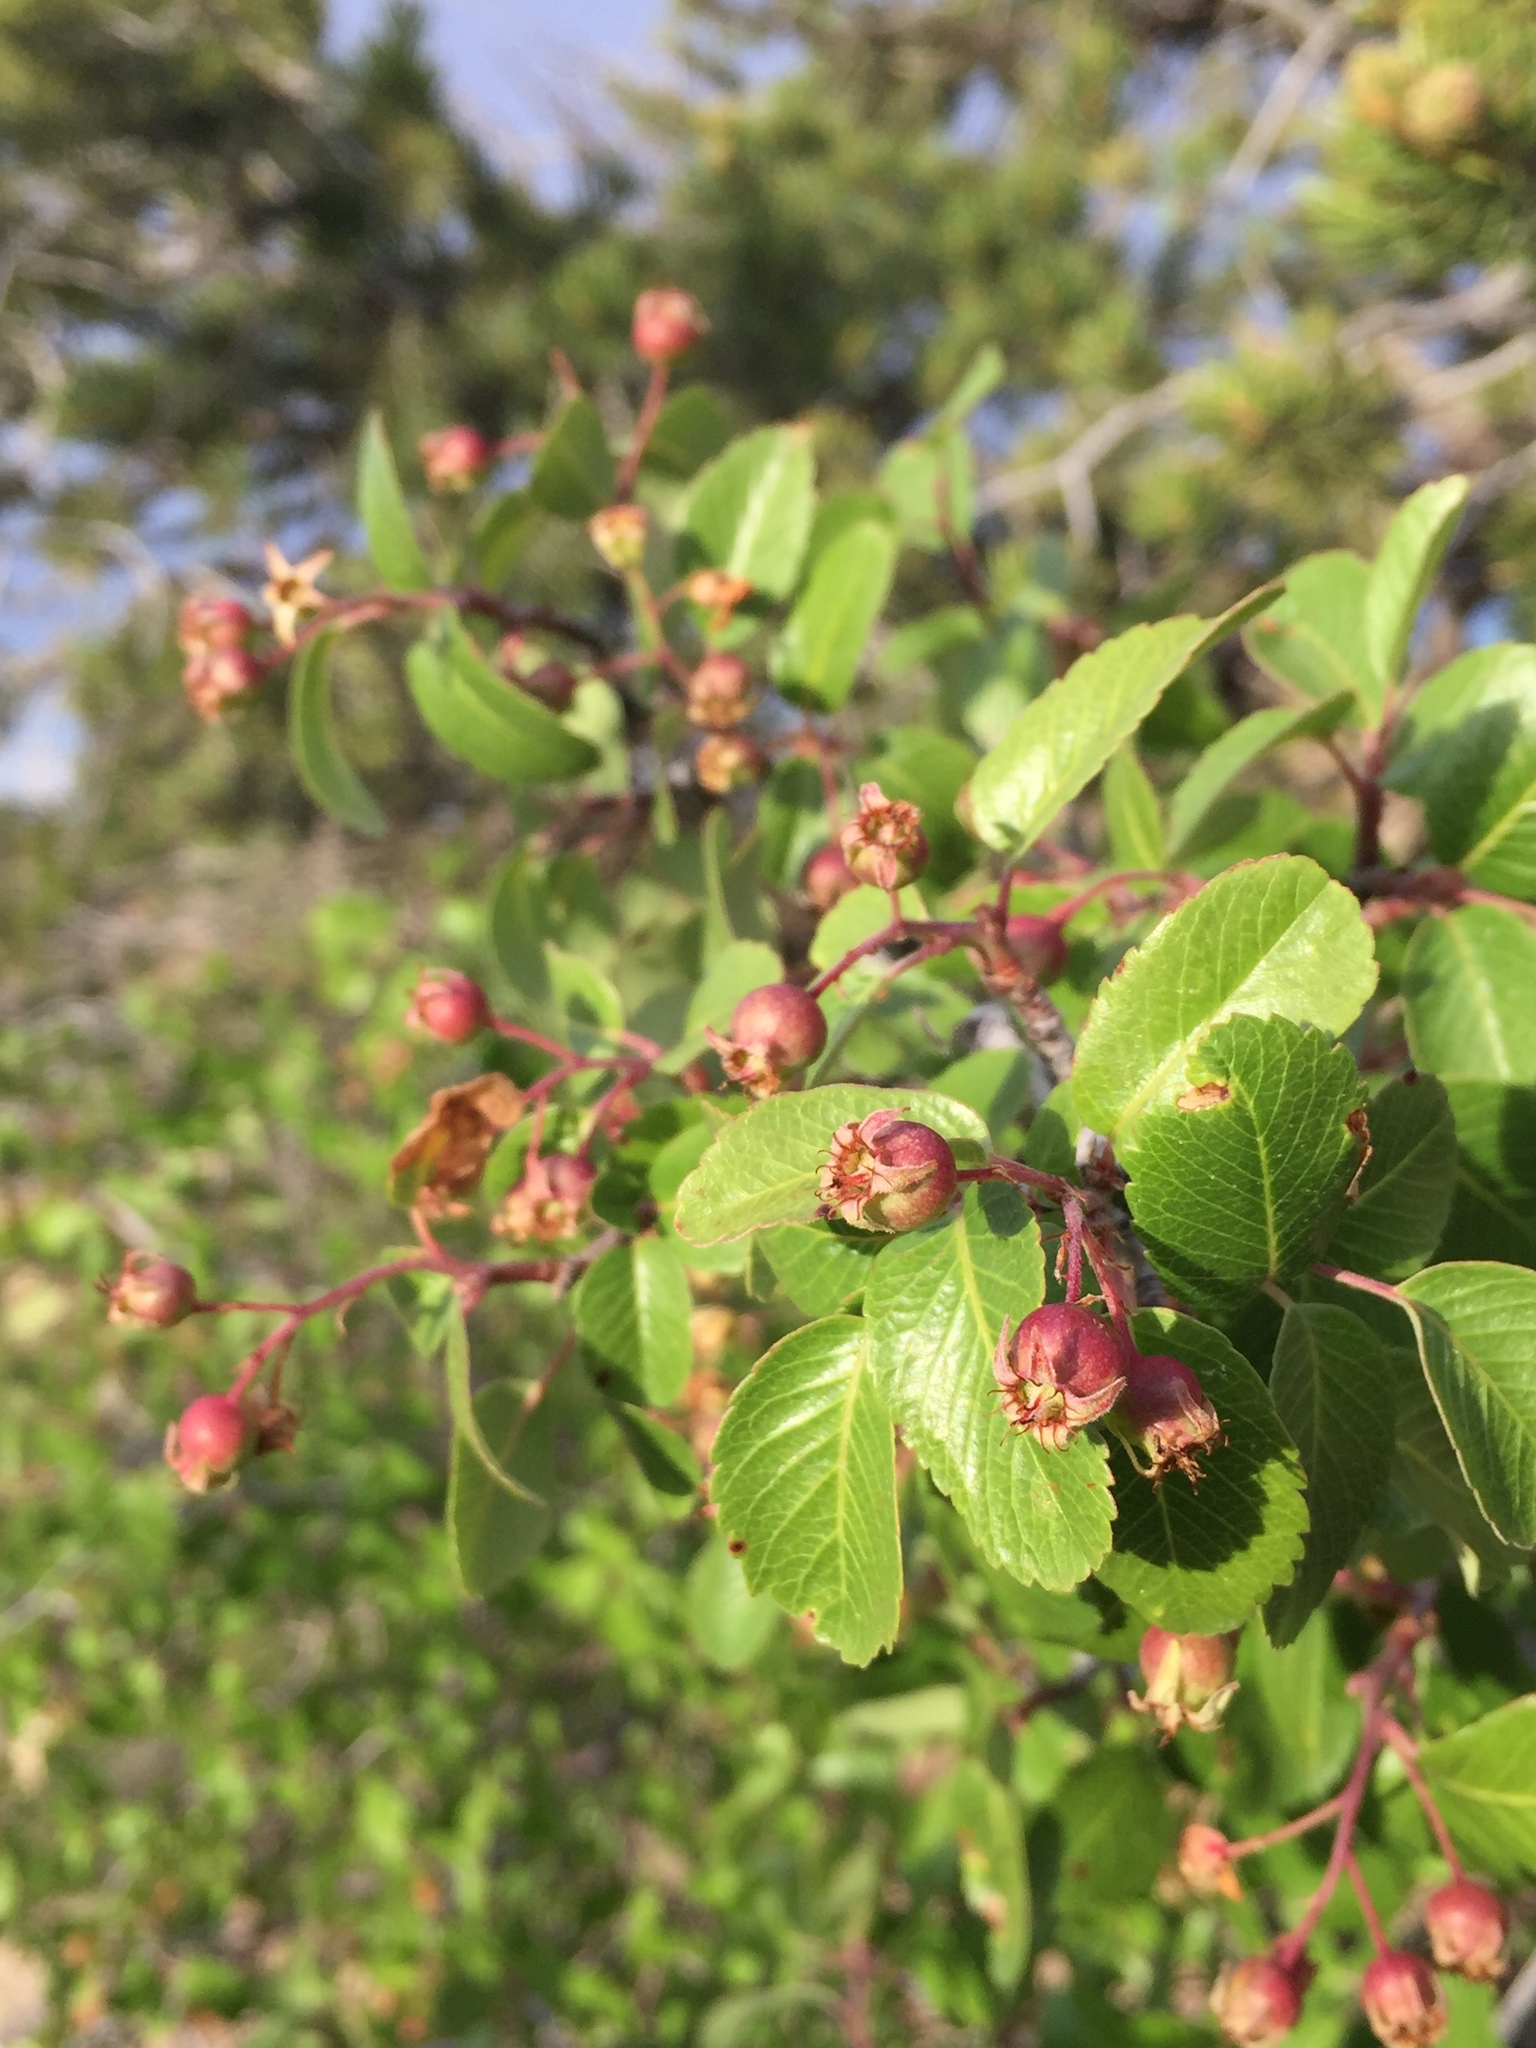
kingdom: Plantae
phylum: Tracheophyta
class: Magnoliopsida
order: Rosales
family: Rosaceae
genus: Amelanchier
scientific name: Amelanchier utahensis
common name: Utah serviceberry
